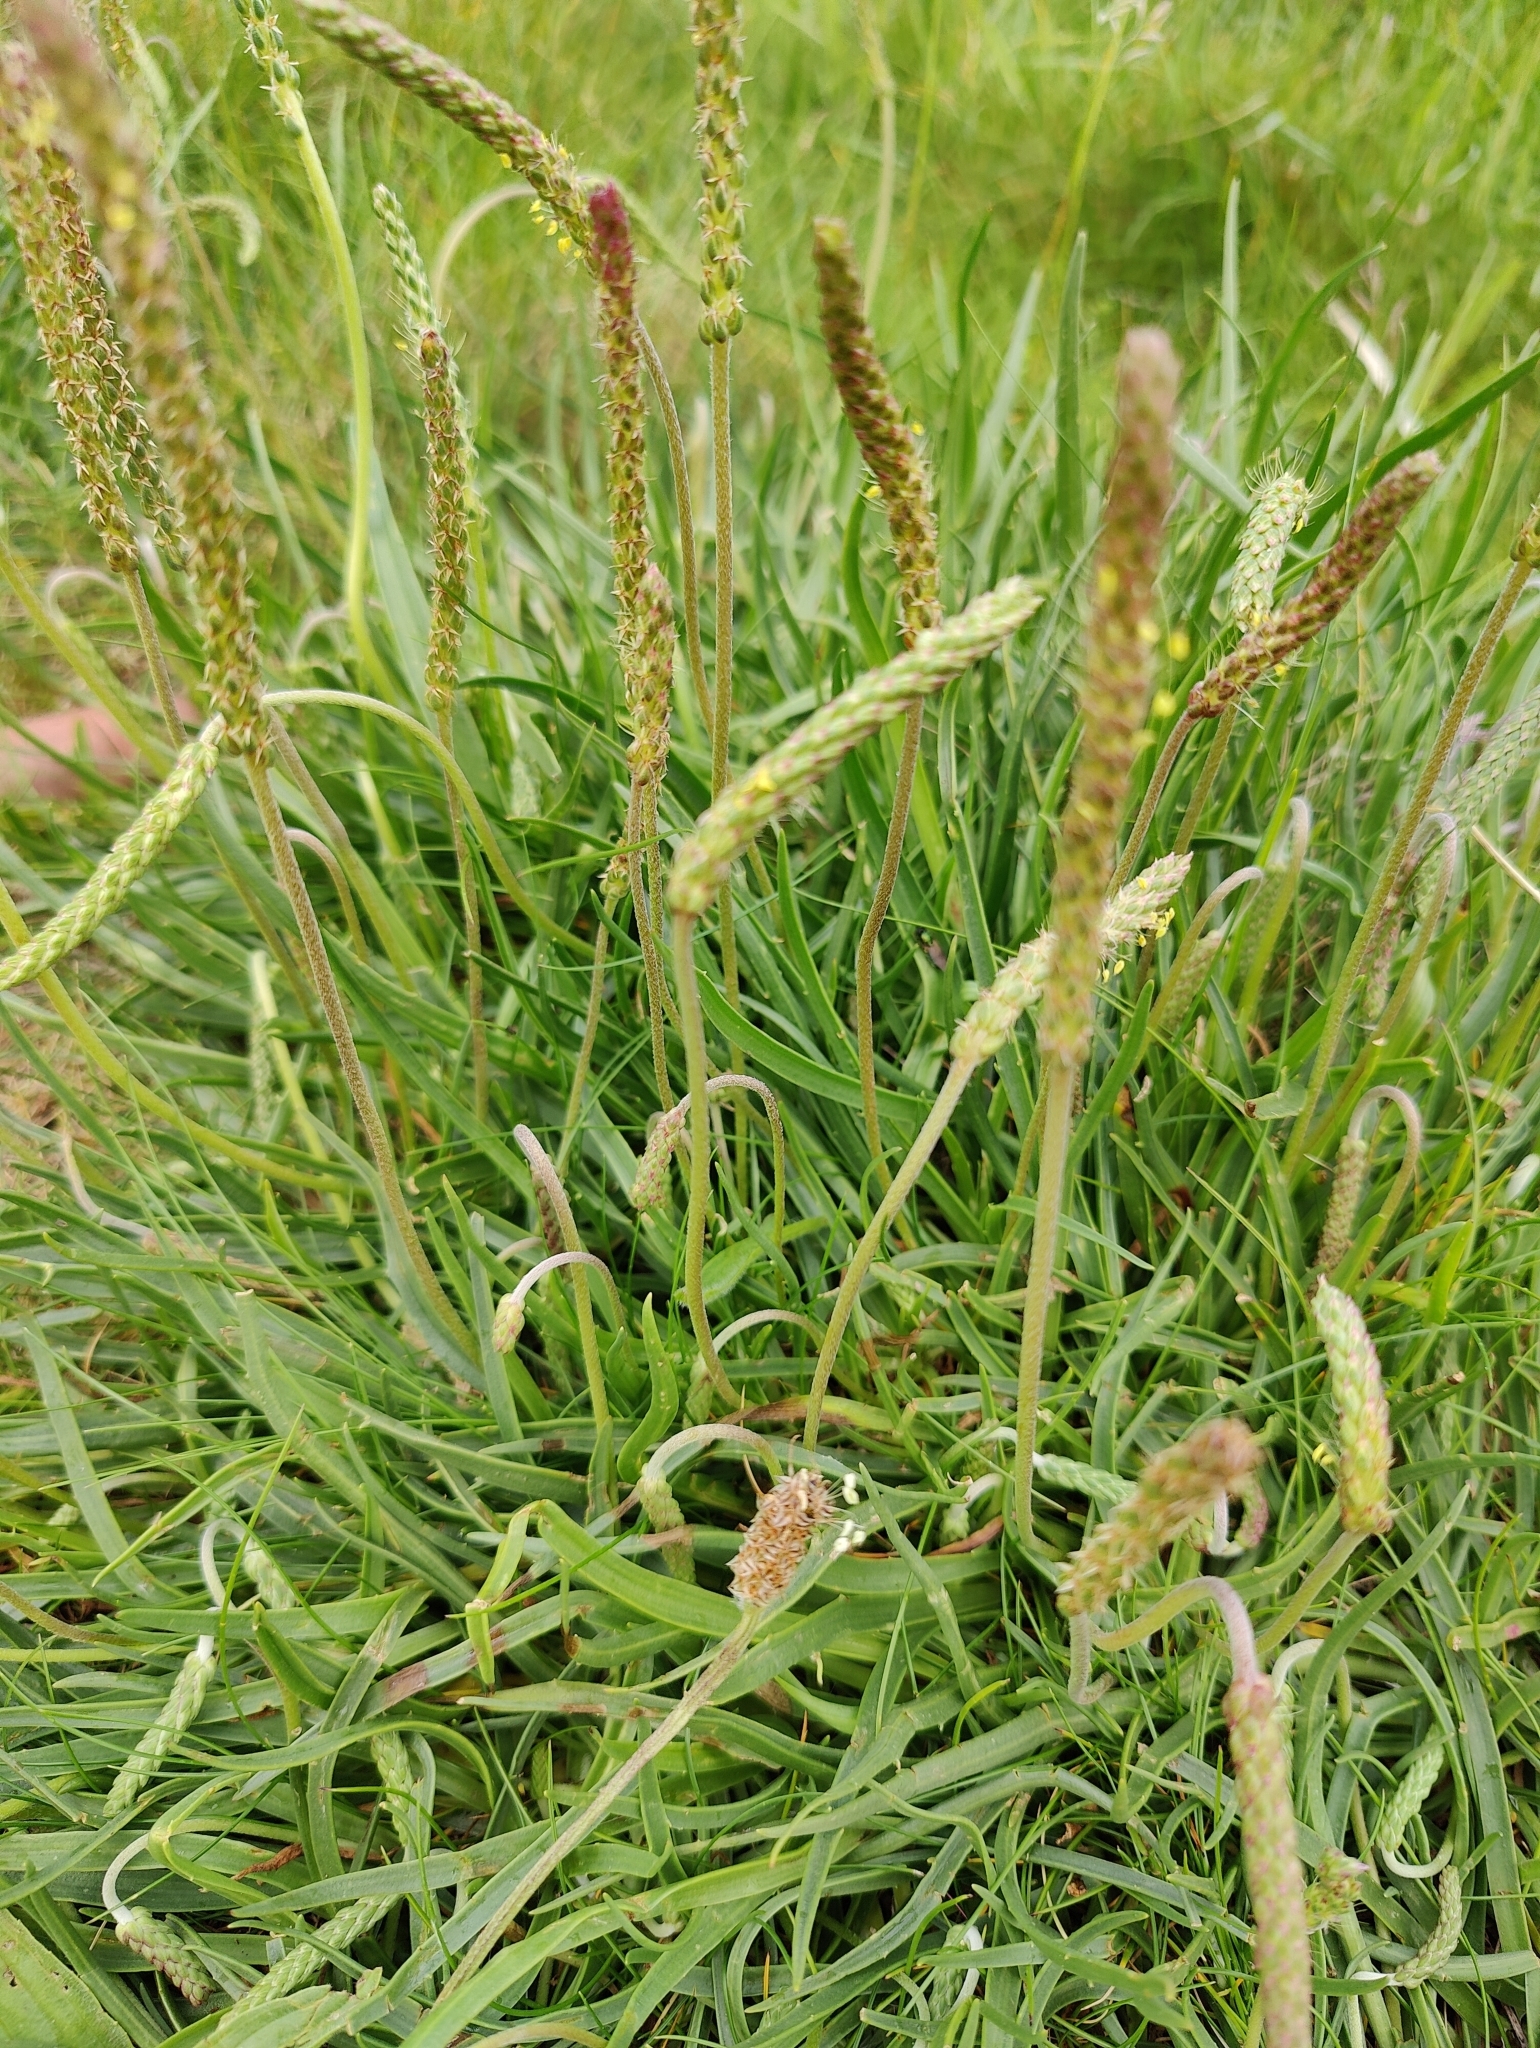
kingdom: Plantae
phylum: Tracheophyta
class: Magnoliopsida
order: Lamiales
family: Plantaginaceae
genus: Plantago
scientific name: Plantago maritima
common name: Sea plantain
